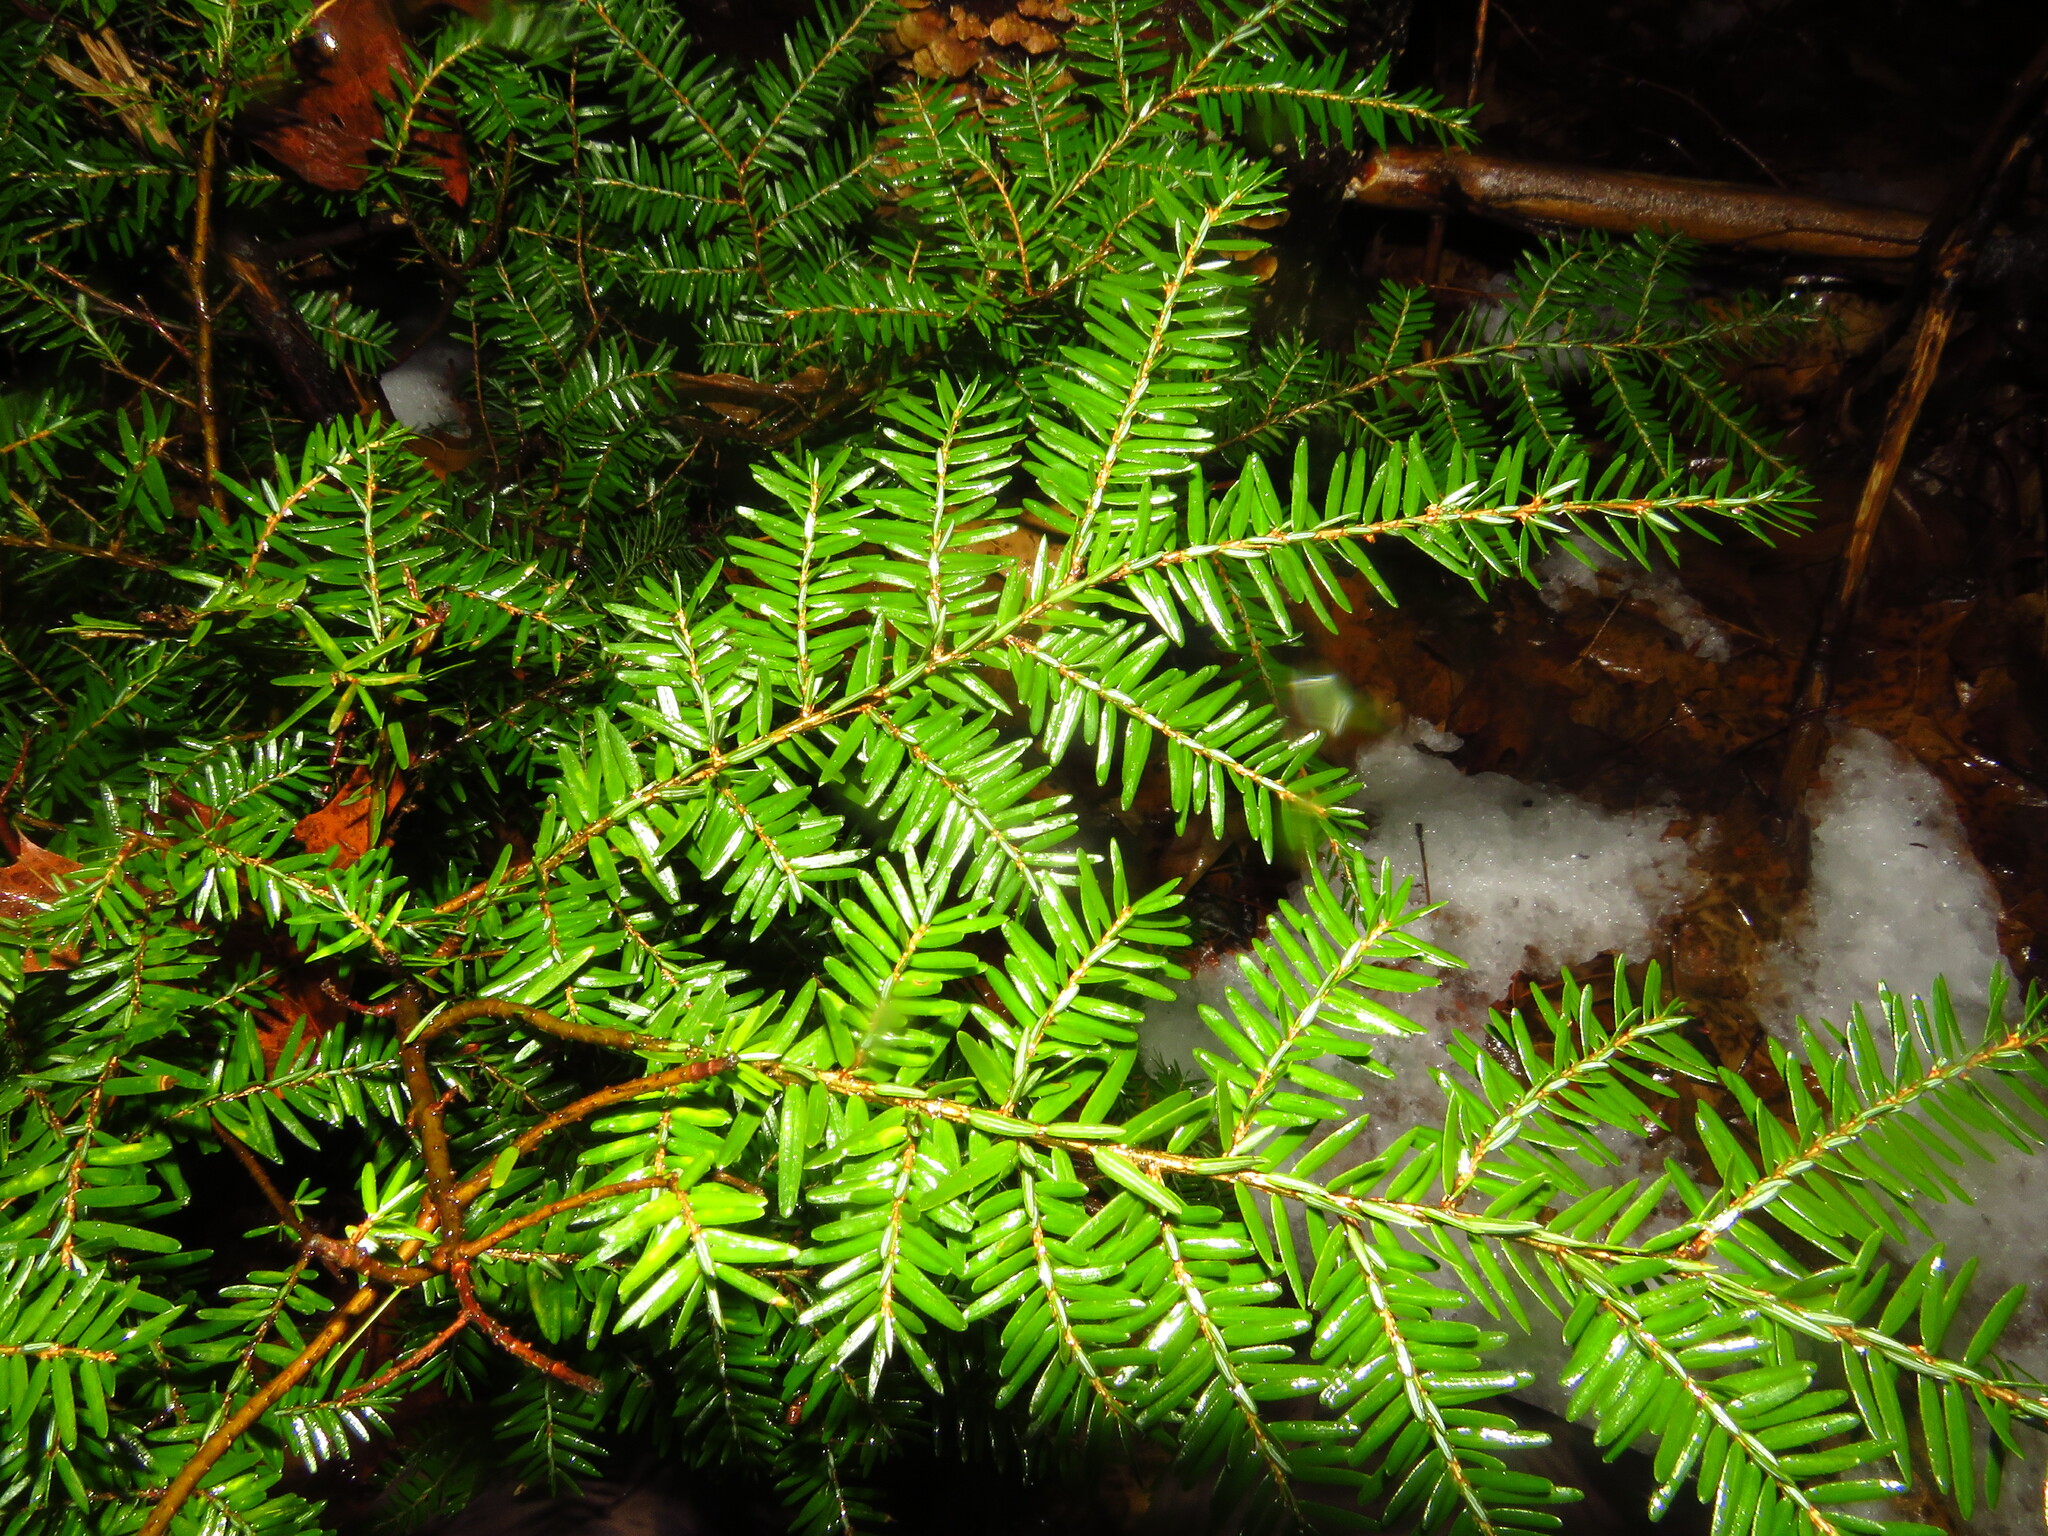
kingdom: Plantae
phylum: Tracheophyta
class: Pinopsida
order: Pinales
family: Pinaceae
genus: Tsuga
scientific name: Tsuga canadensis
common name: Eastern hemlock
